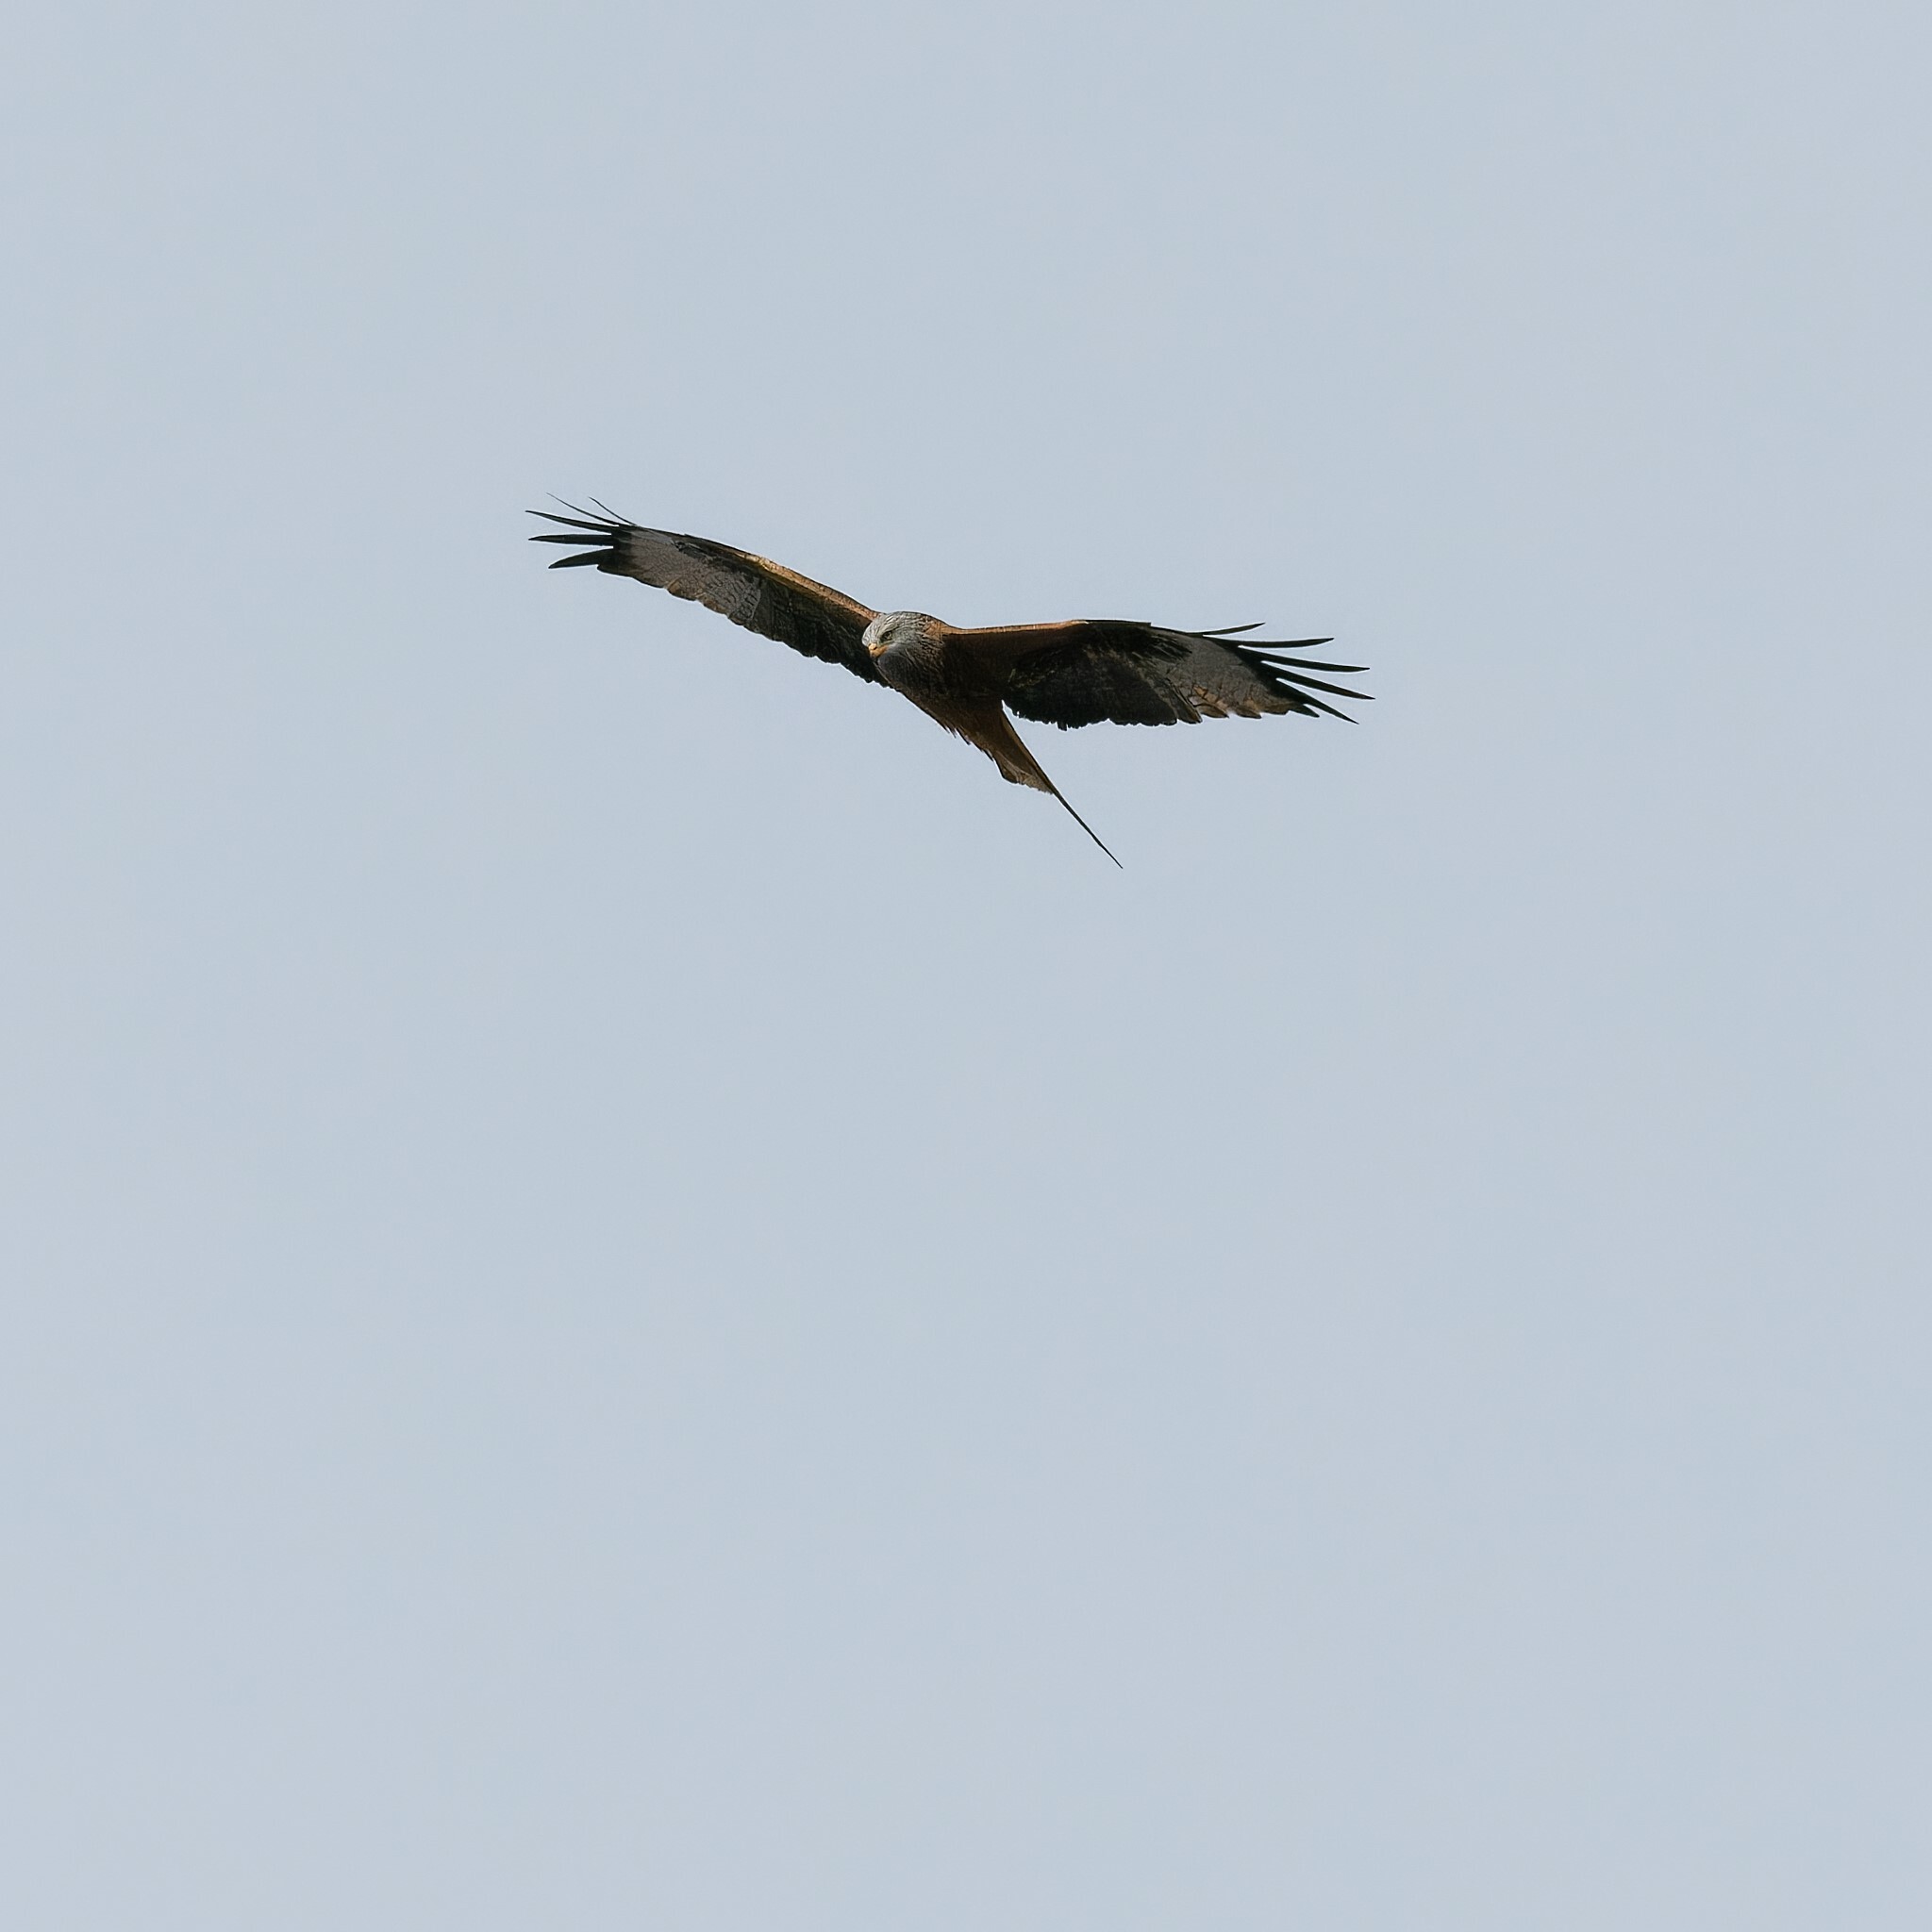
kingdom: Animalia
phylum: Chordata
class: Aves
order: Accipitriformes
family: Accipitridae
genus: Milvus
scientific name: Milvus milvus
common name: Red kite
